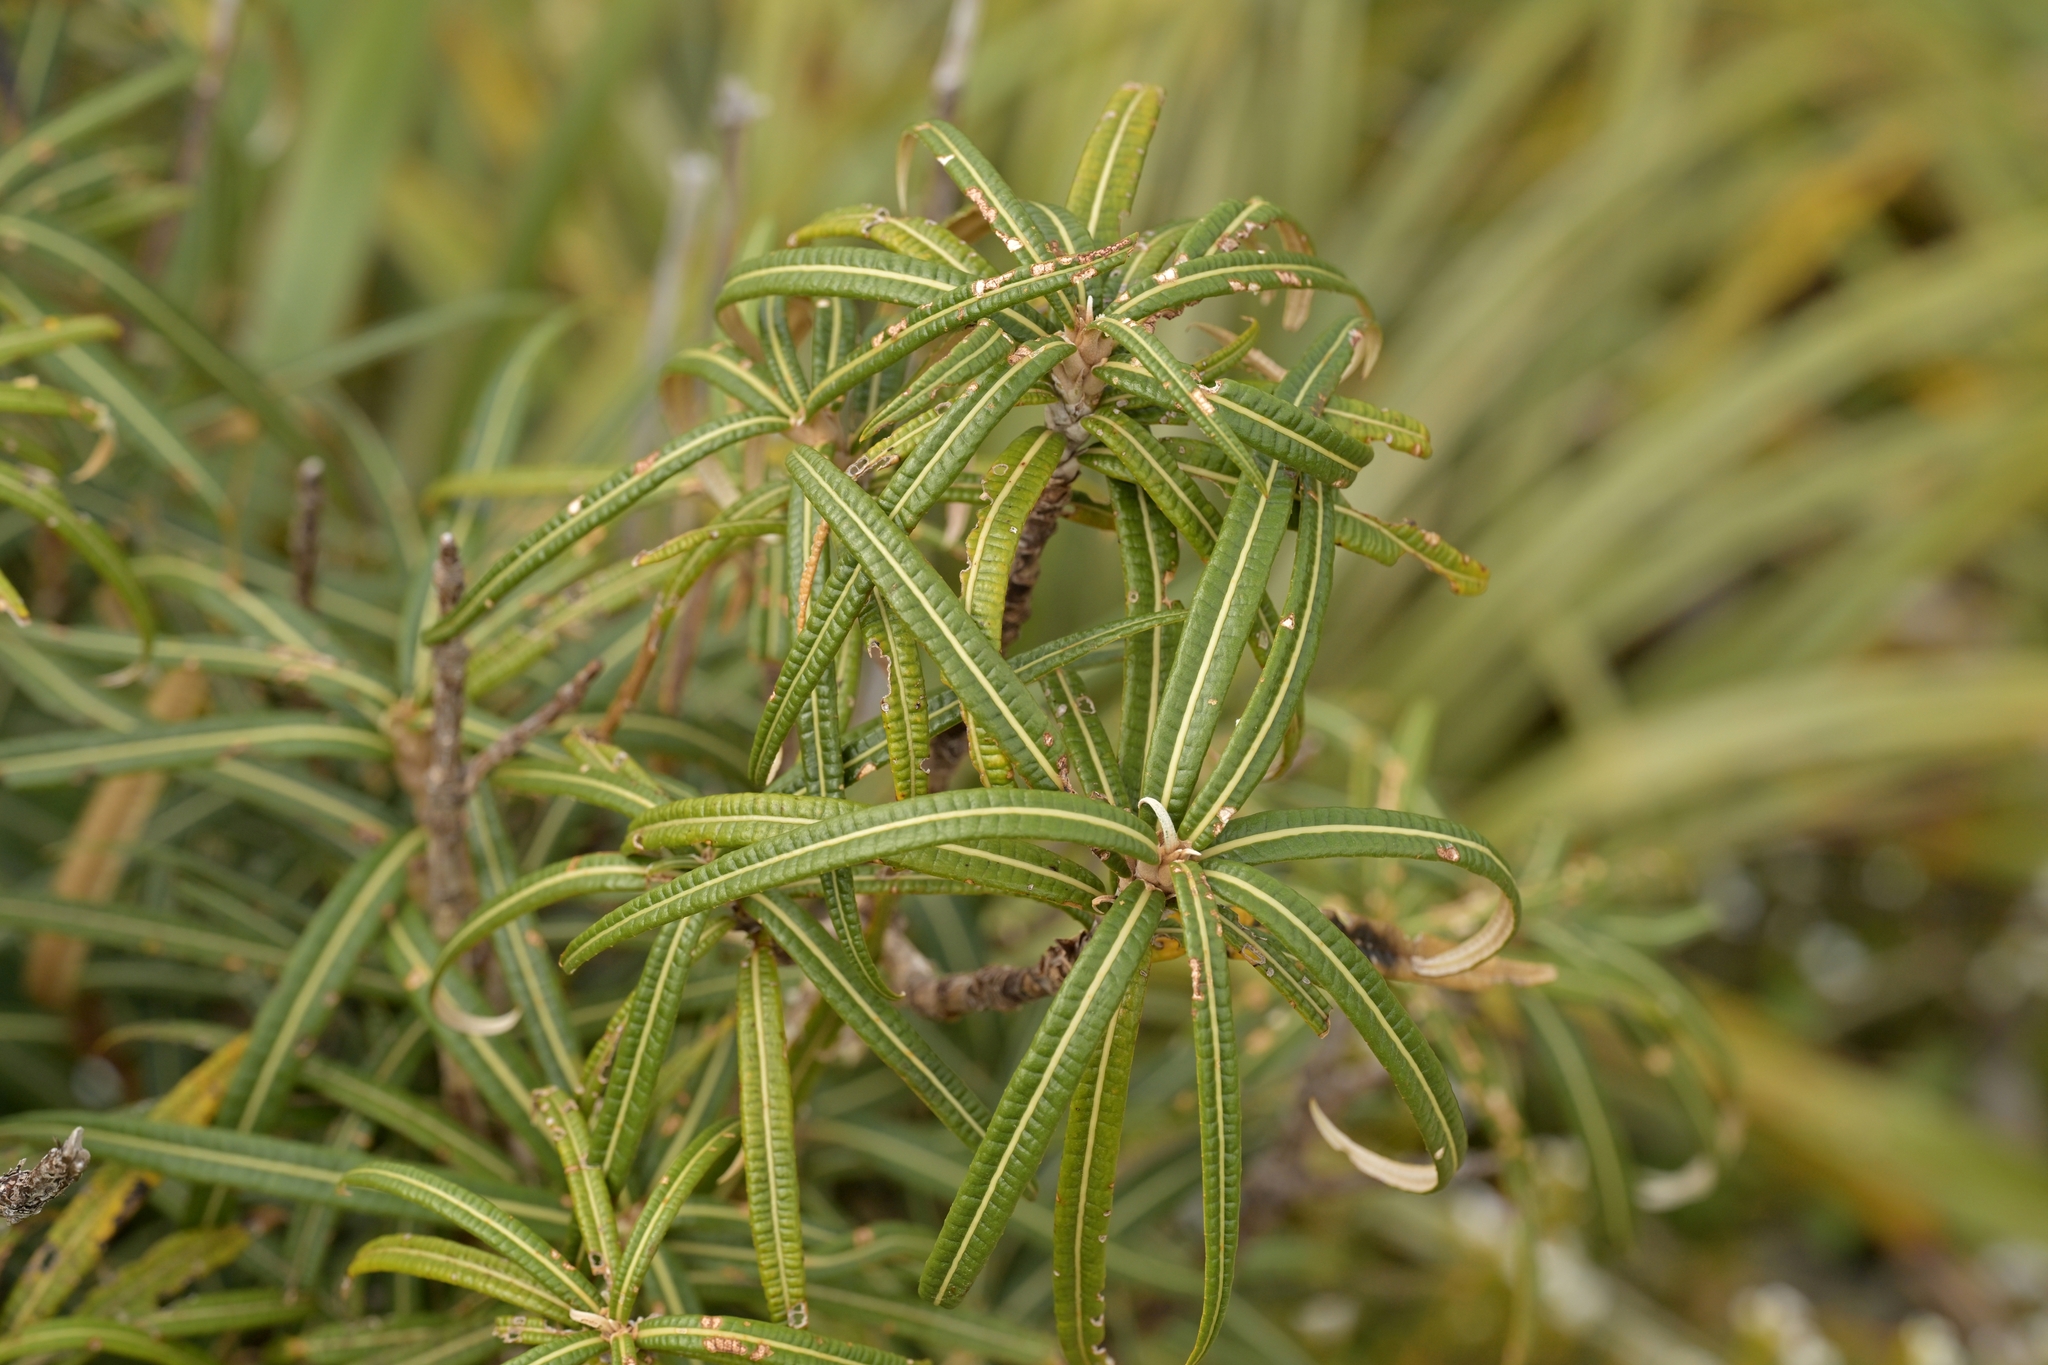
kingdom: Plantae
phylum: Tracheophyta
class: Magnoliopsida
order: Asterales
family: Asteraceae
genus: Olearia
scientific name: Olearia lacunosa
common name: Lancewood tree daisy
